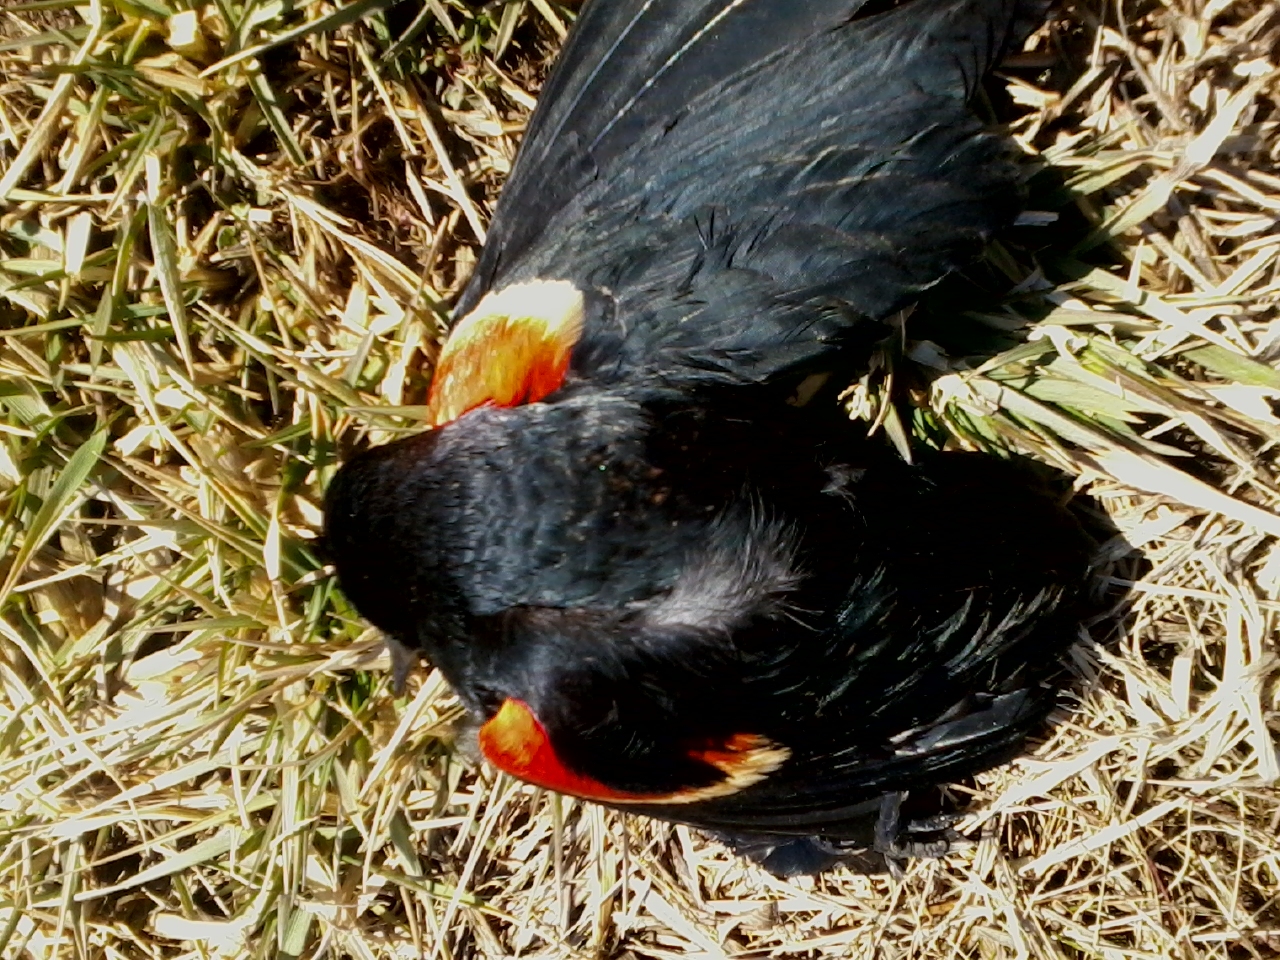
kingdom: Animalia
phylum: Chordata
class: Aves
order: Passeriformes
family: Icteridae
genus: Agelaius
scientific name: Agelaius phoeniceus
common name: Red-winged blackbird
